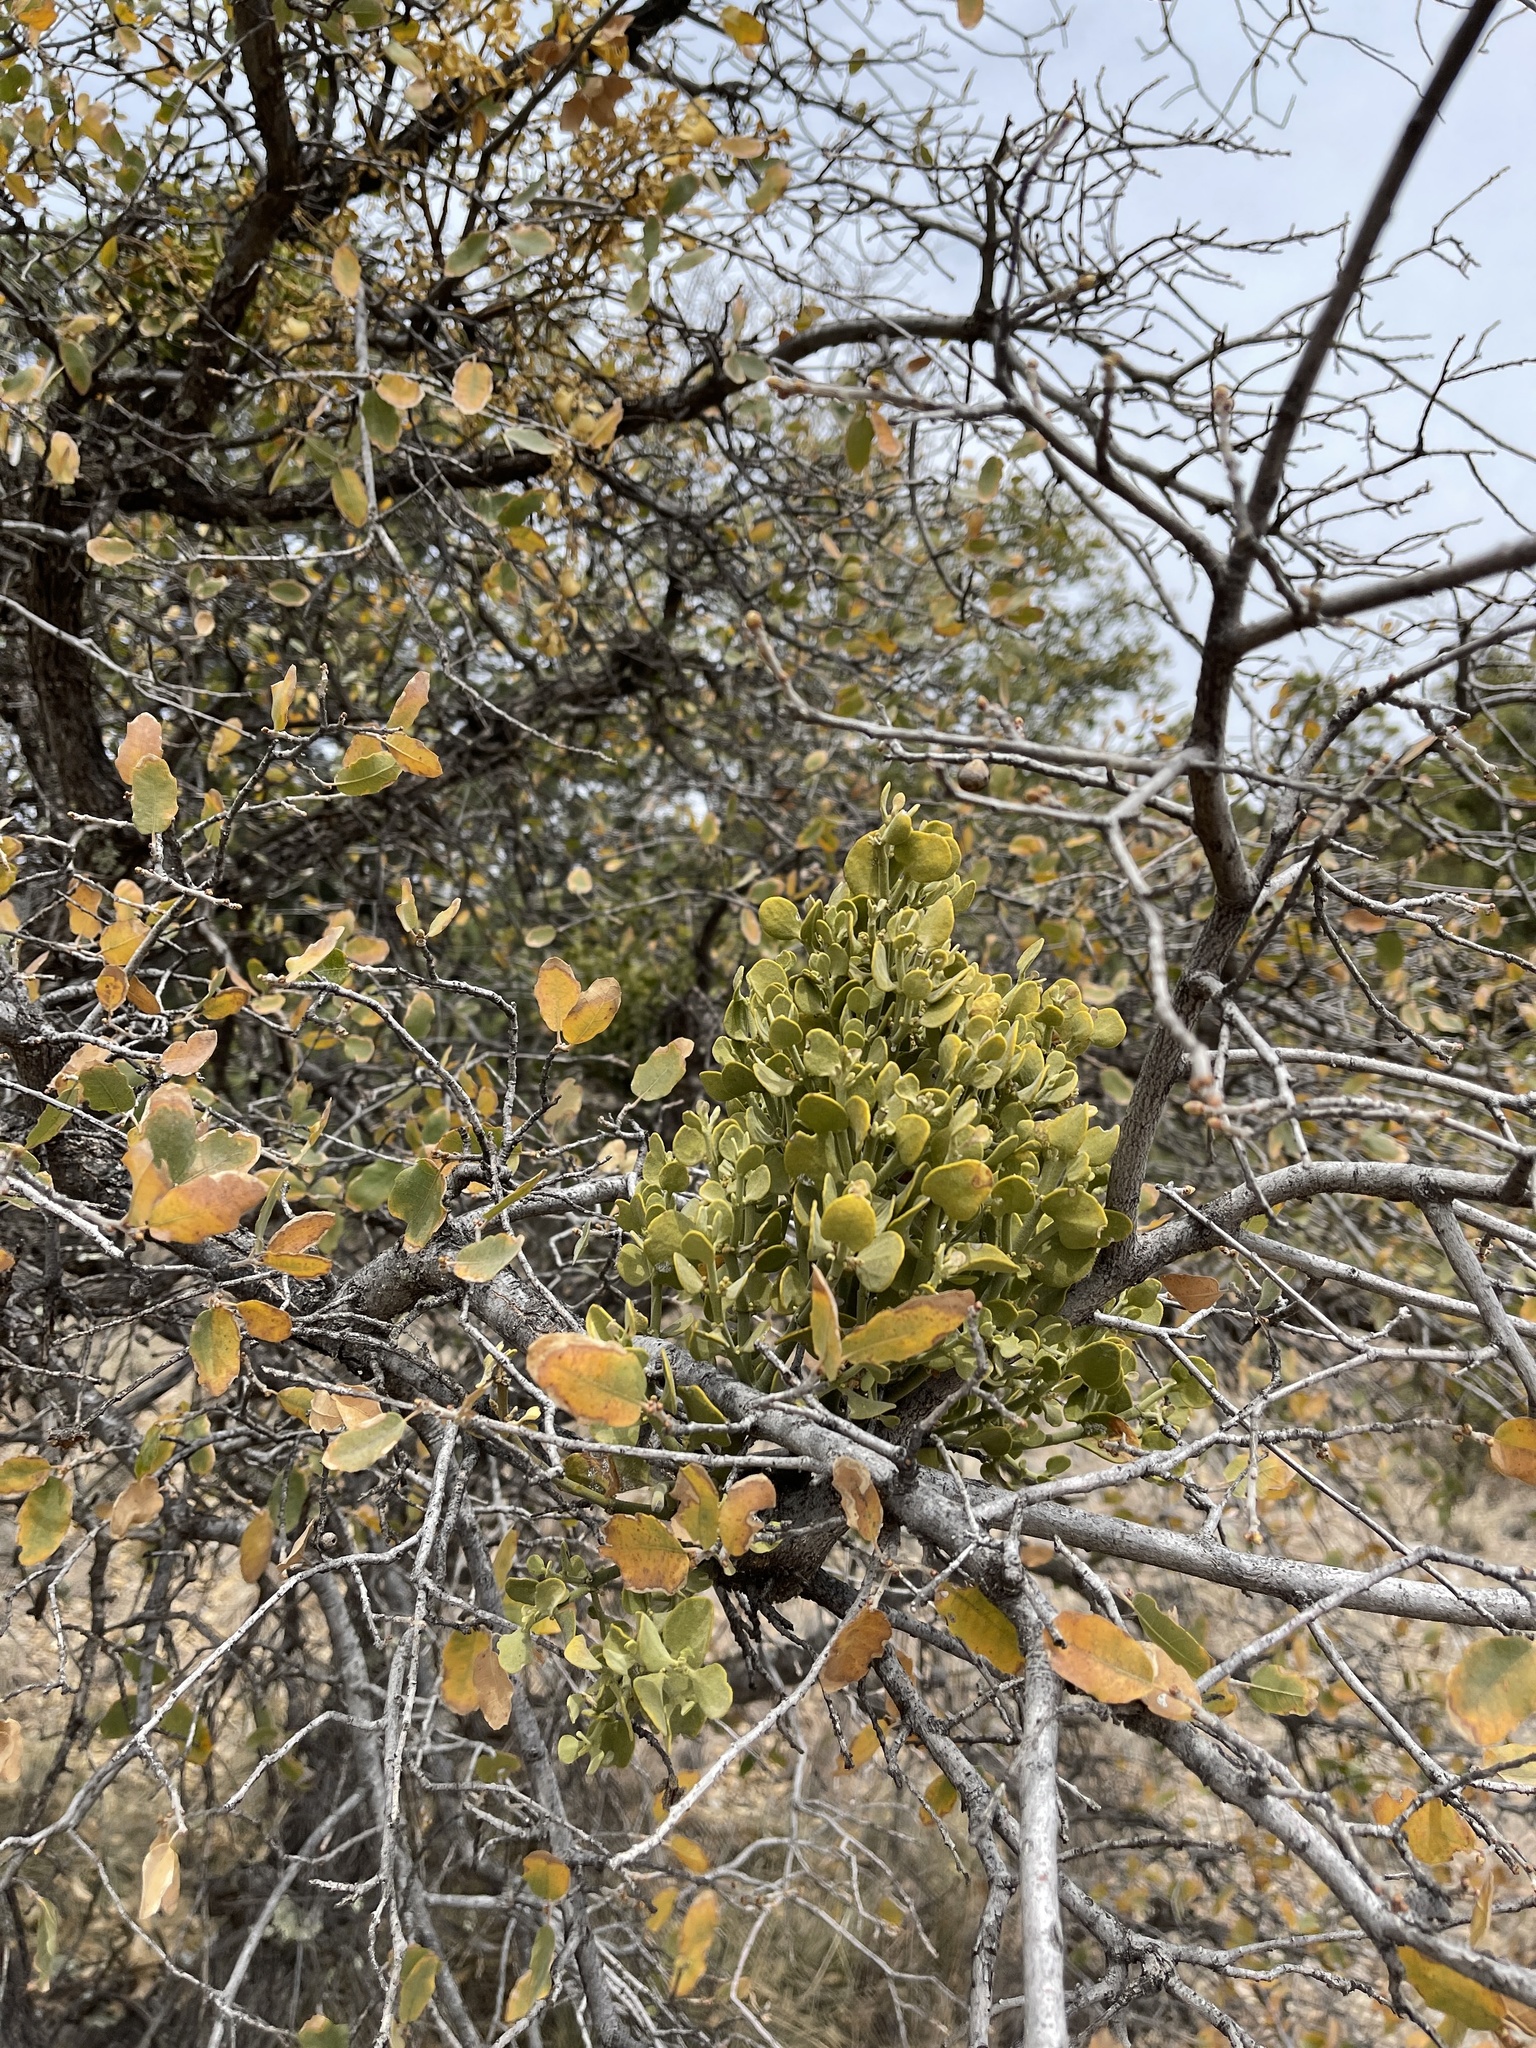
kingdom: Plantae
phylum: Tracheophyta
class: Magnoliopsida
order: Santalales
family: Viscaceae
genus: Phoradendron
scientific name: Phoradendron coryae
